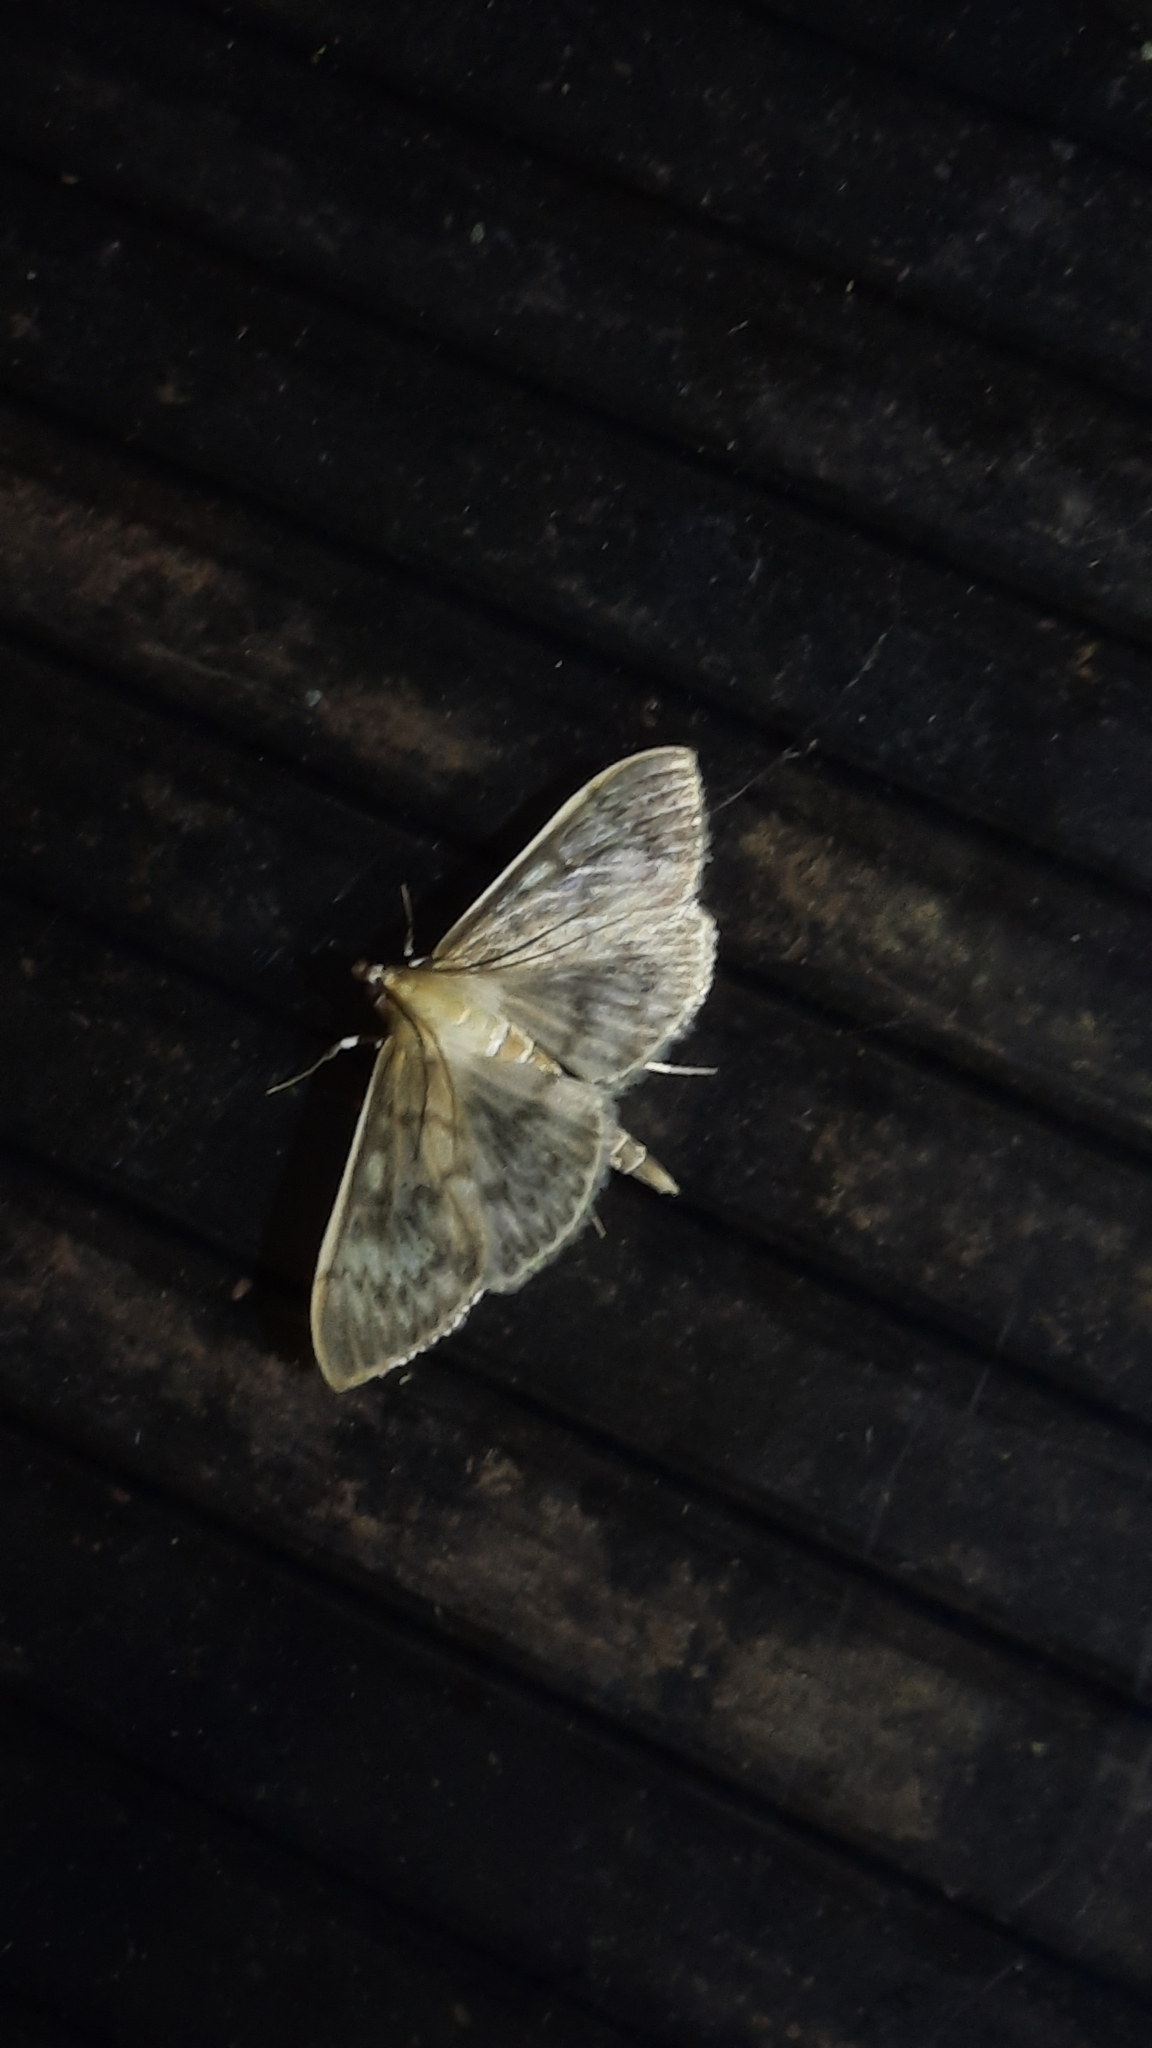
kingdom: Animalia
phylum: Arthropoda
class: Insecta
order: Lepidoptera
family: Crambidae
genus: Patania
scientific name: Patania ruralis
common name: Mother of pearl
